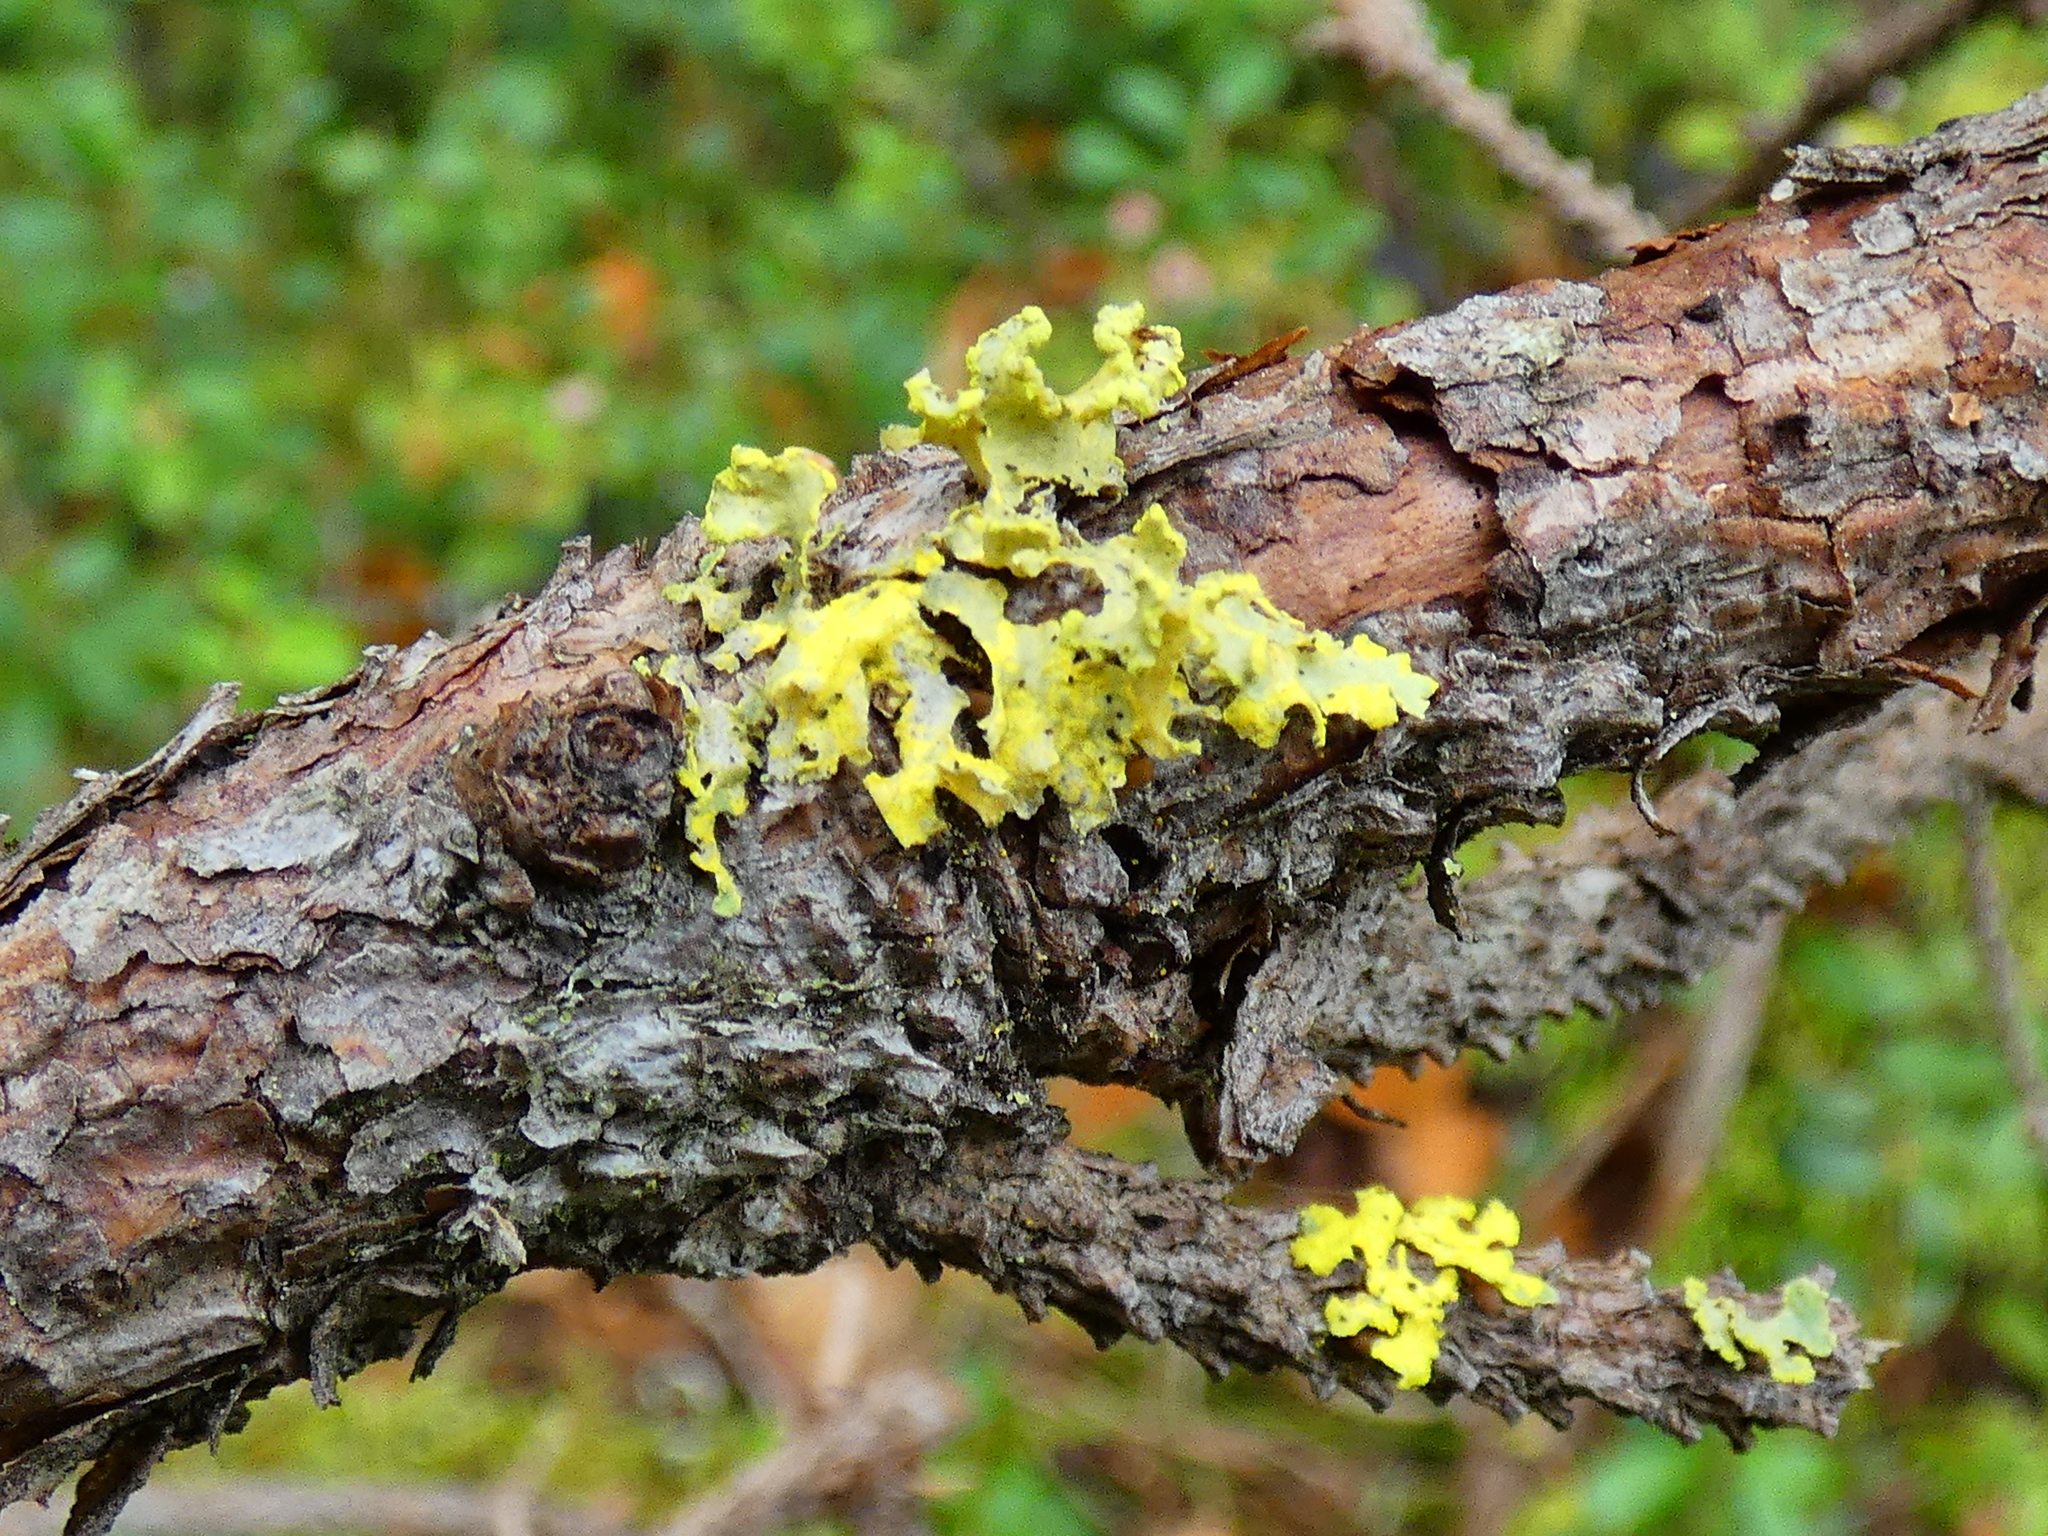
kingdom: Fungi
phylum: Ascomycota
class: Lecanoromycetes
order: Lecanorales
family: Parmeliaceae
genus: Vulpicida
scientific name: Vulpicida pinastri
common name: Powdered sunshine lichen
